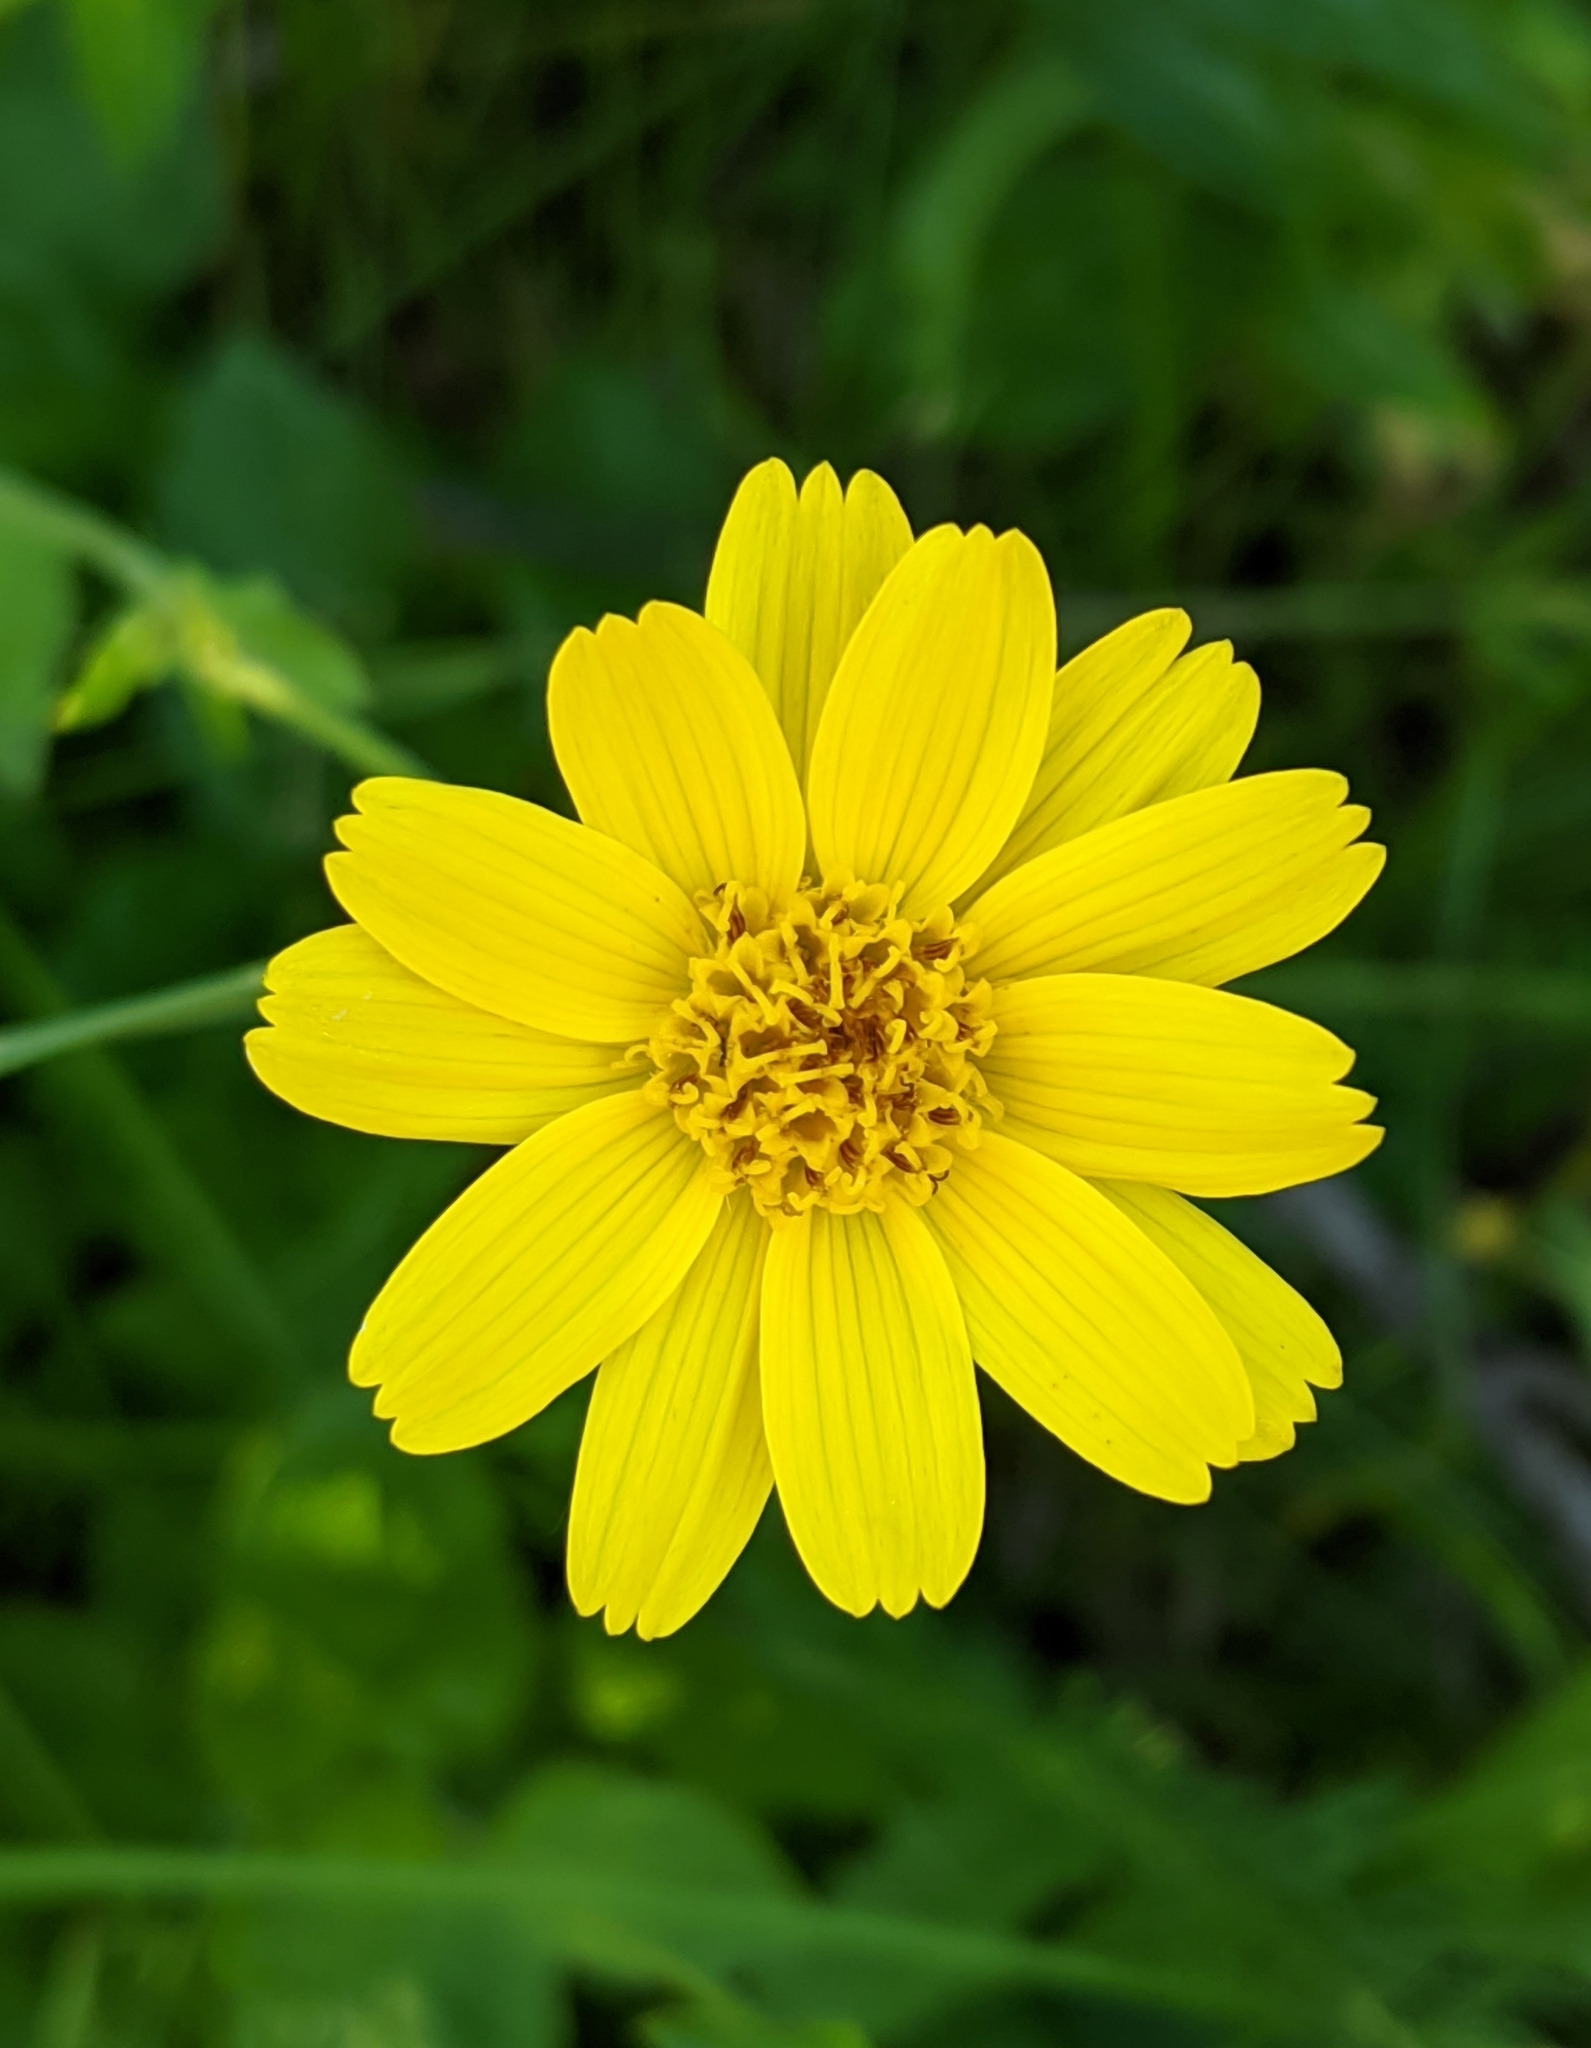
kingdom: Plantae
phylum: Tracheophyta
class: Magnoliopsida
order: Asterales
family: Asteraceae
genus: Arnica
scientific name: Arnica latifolia
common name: Arnica
